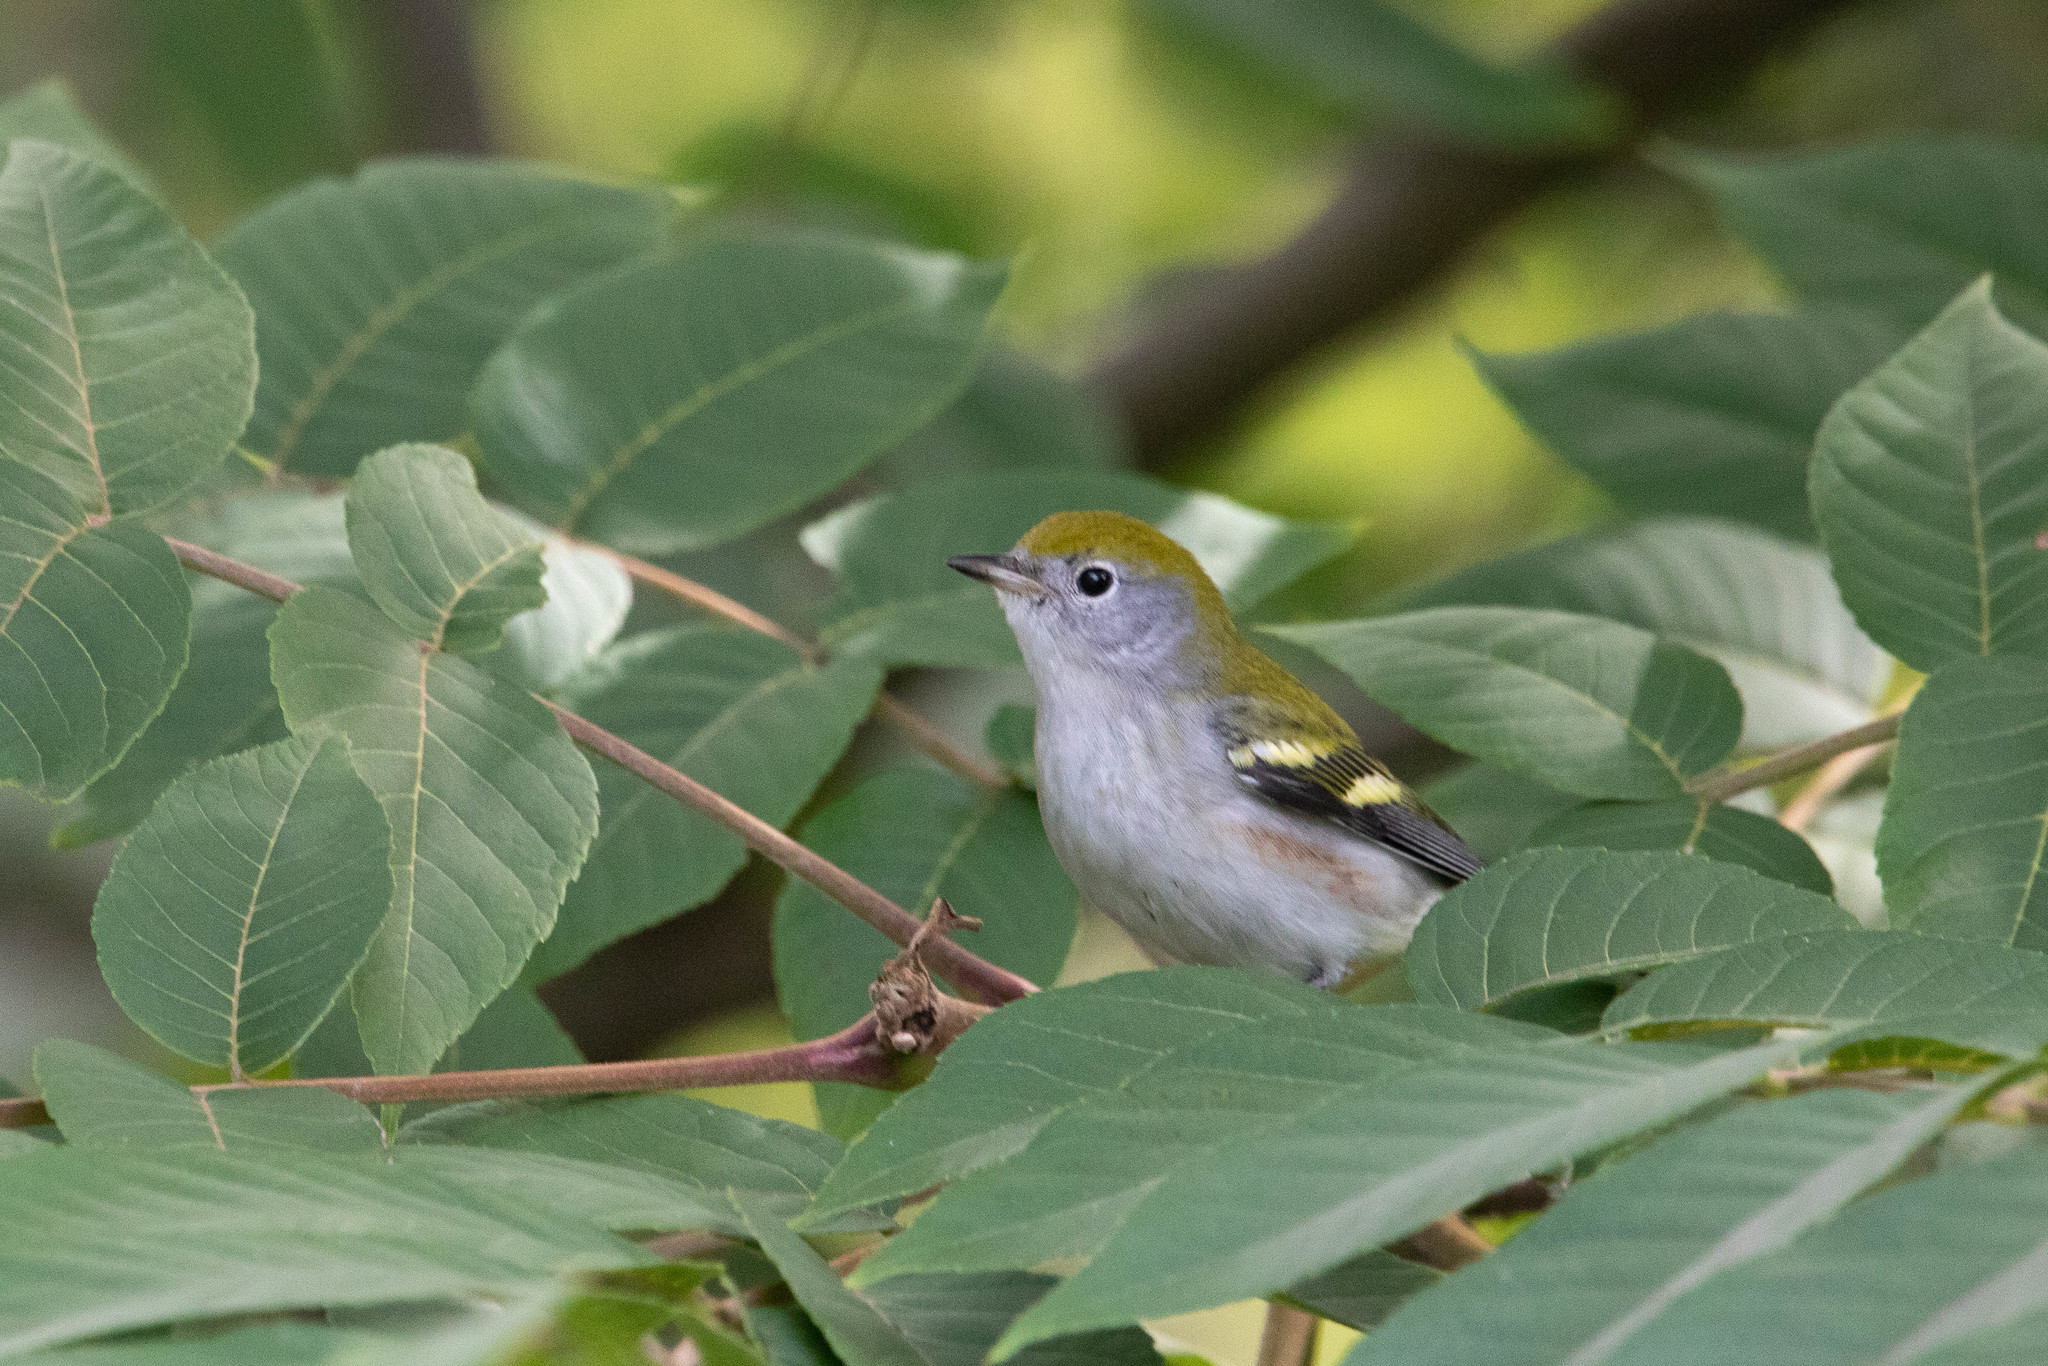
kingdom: Animalia
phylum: Chordata
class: Aves
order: Passeriformes
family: Parulidae
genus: Setophaga
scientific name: Setophaga pensylvanica
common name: Chestnut-sided warbler
